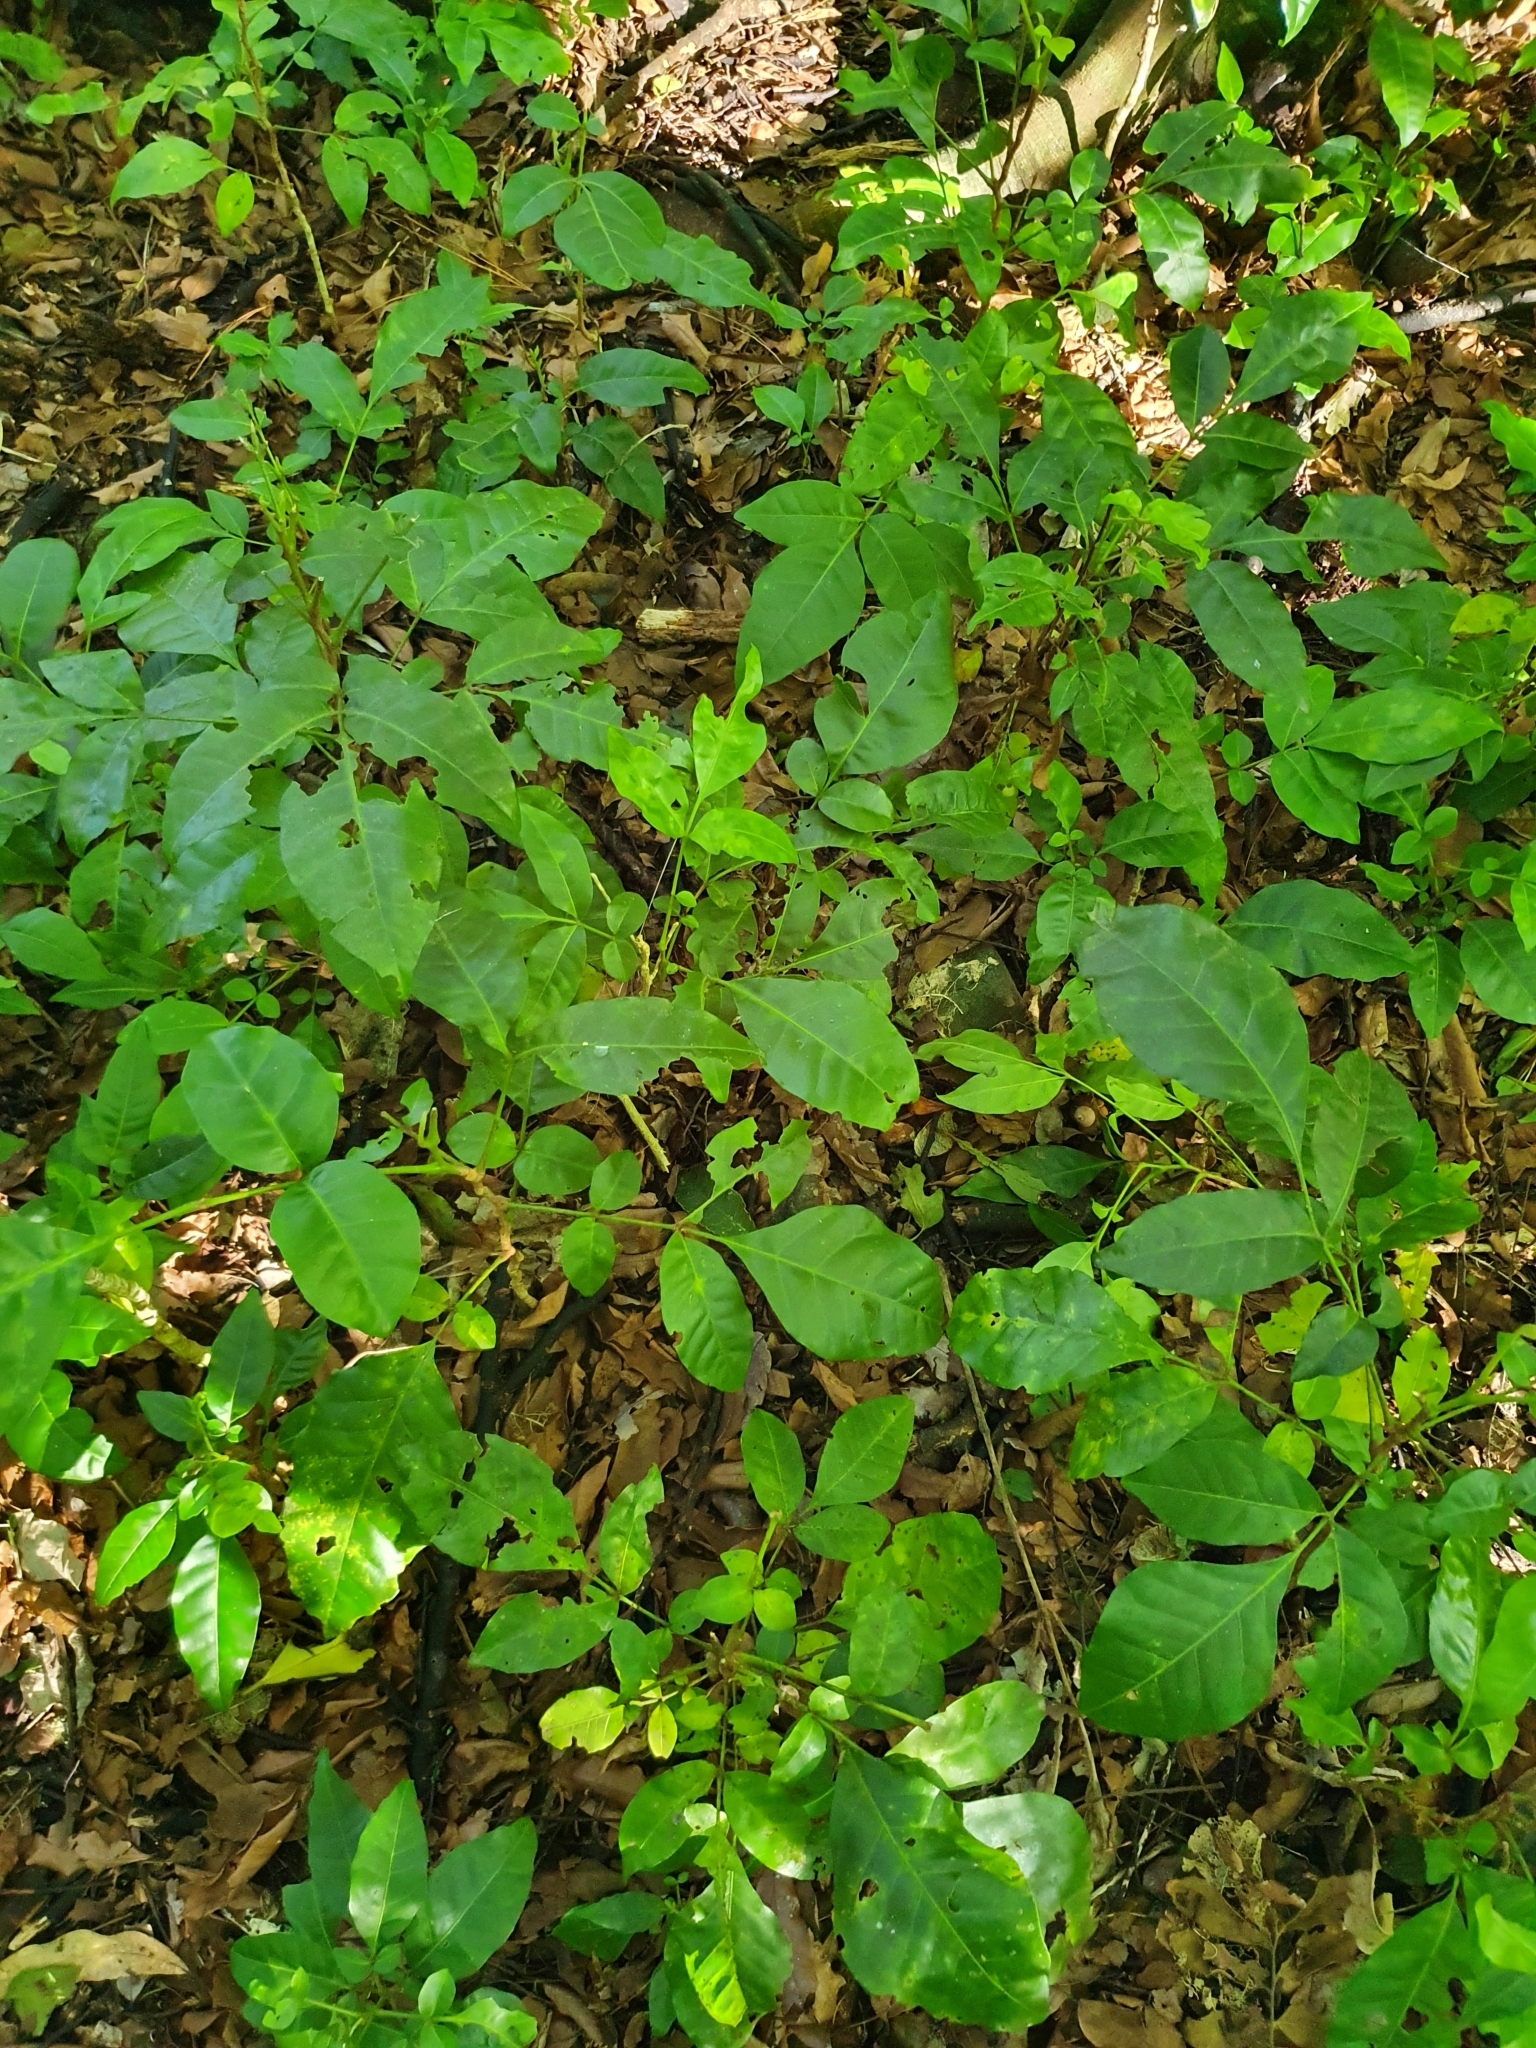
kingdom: Plantae
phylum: Tracheophyta
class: Magnoliopsida
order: Sapindales
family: Meliaceae
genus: Didymocheton
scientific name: Didymocheton spectabilis
